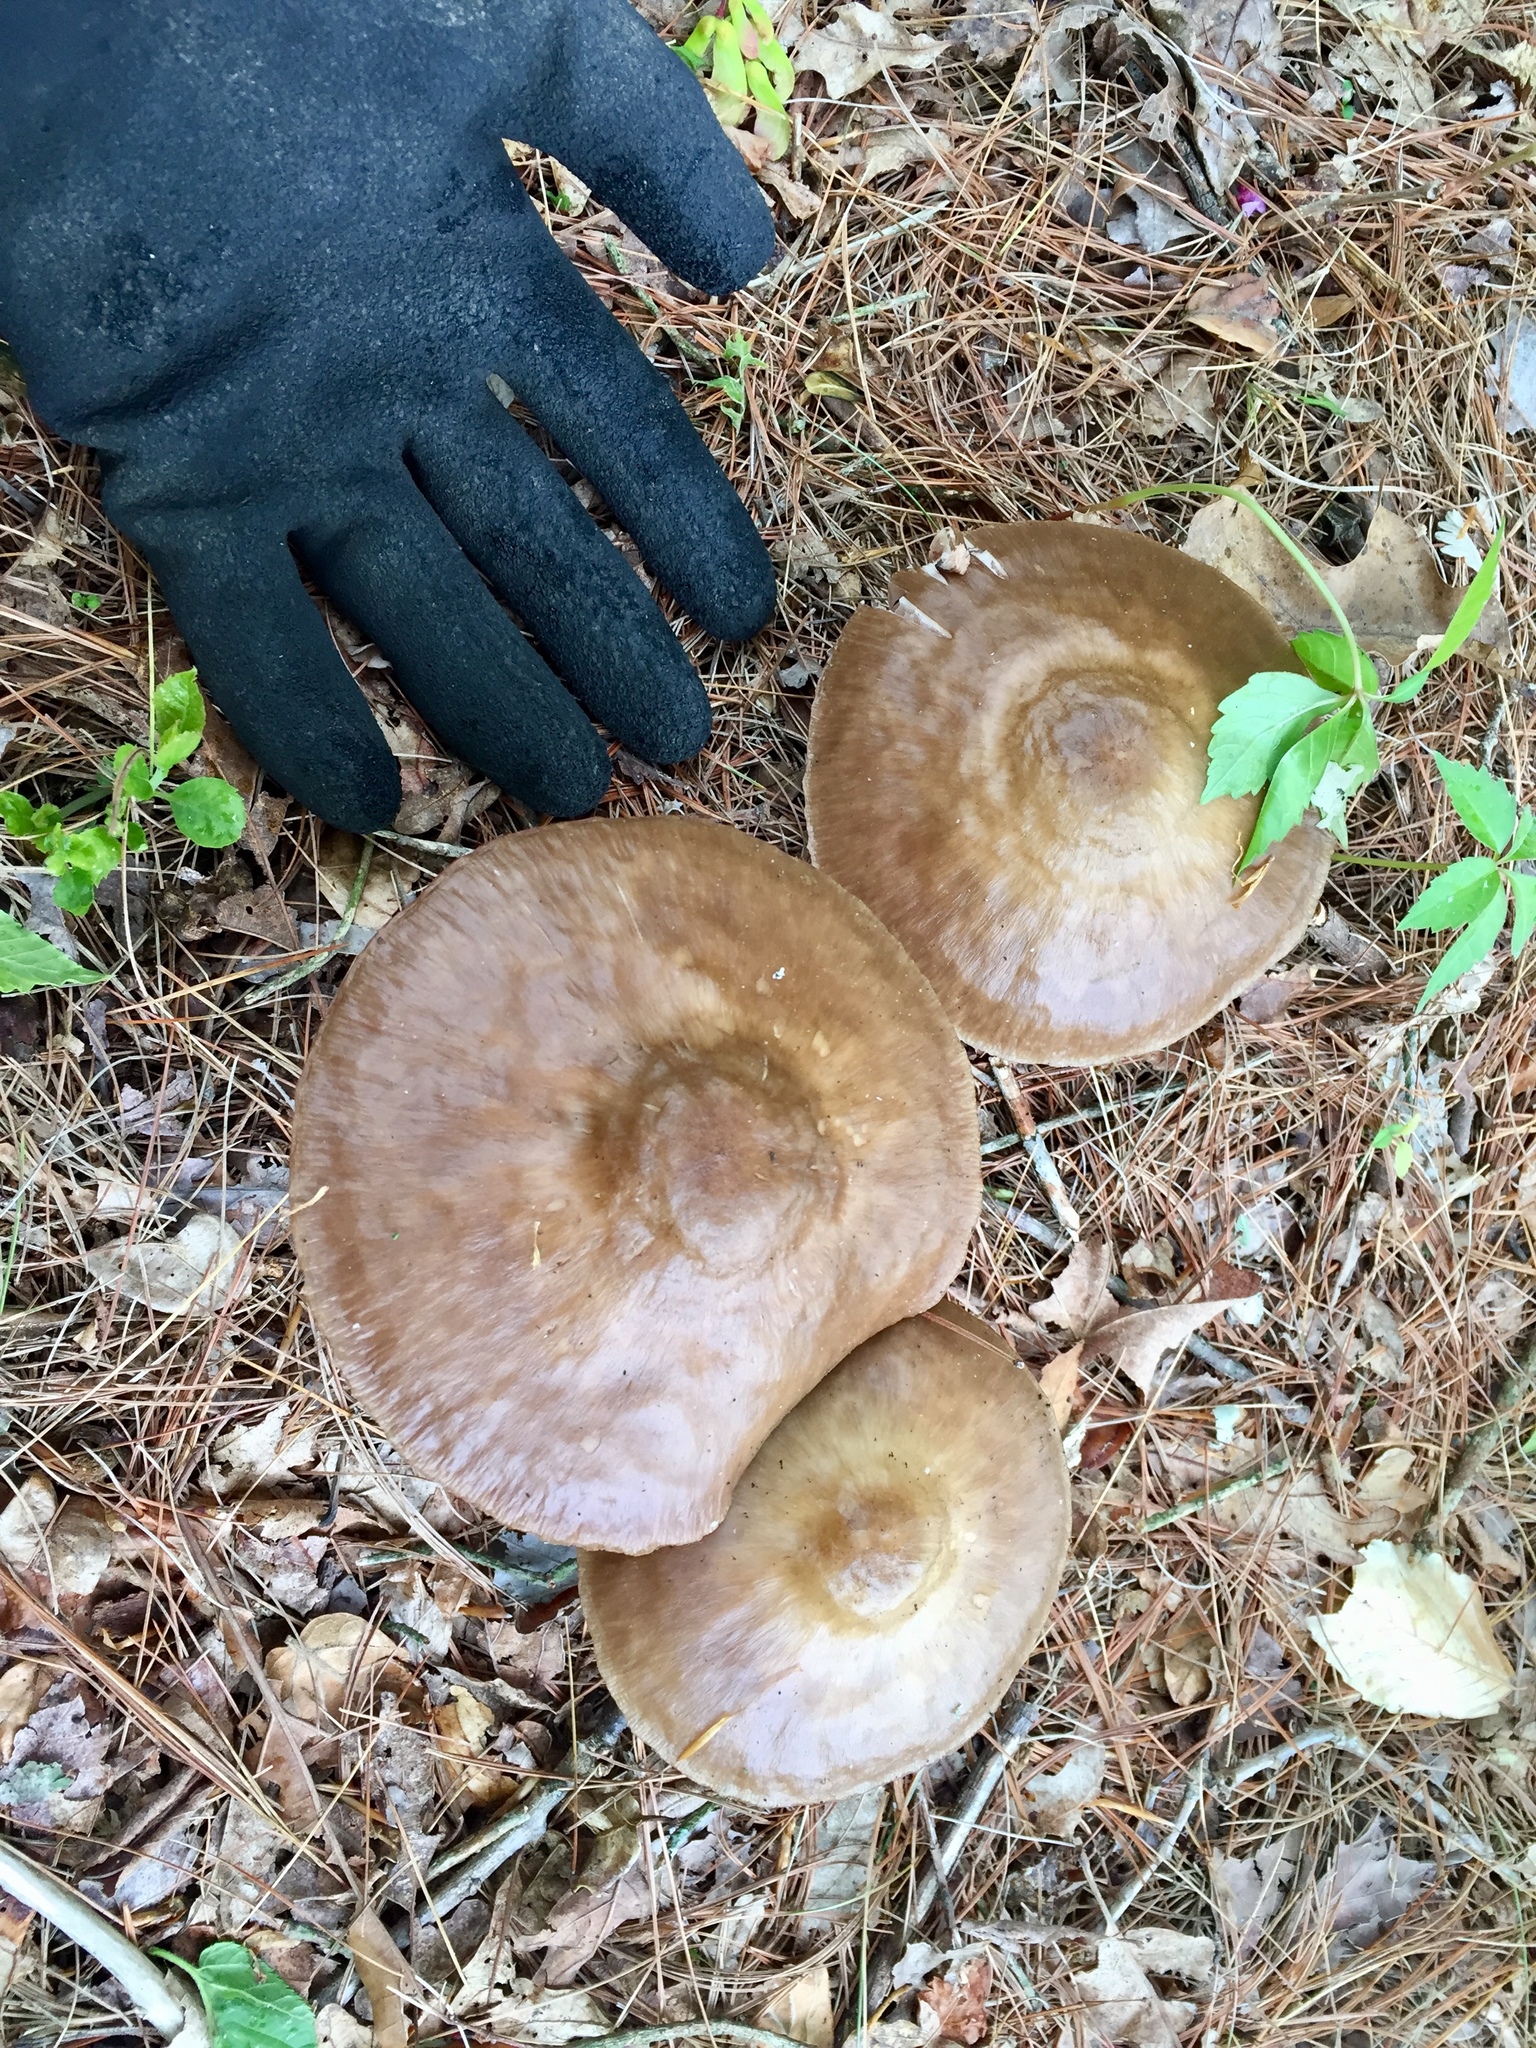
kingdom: Fungi
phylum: Basidiomycota
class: Agaricomycetes
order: Agaricales
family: Pluteaceae
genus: Pluteus
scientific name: Pluteus cervinus
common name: Deer shield
